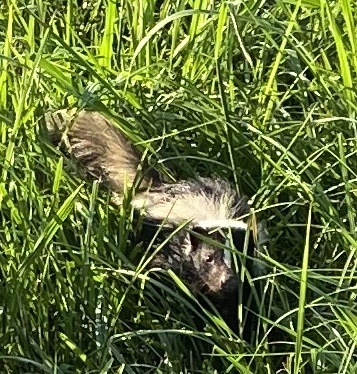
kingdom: Animalia
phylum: Chordata
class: Mammalia
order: Carnivora
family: Mephitidae
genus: Mephitis
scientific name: Mephitis mephitis
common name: Striped skunk
